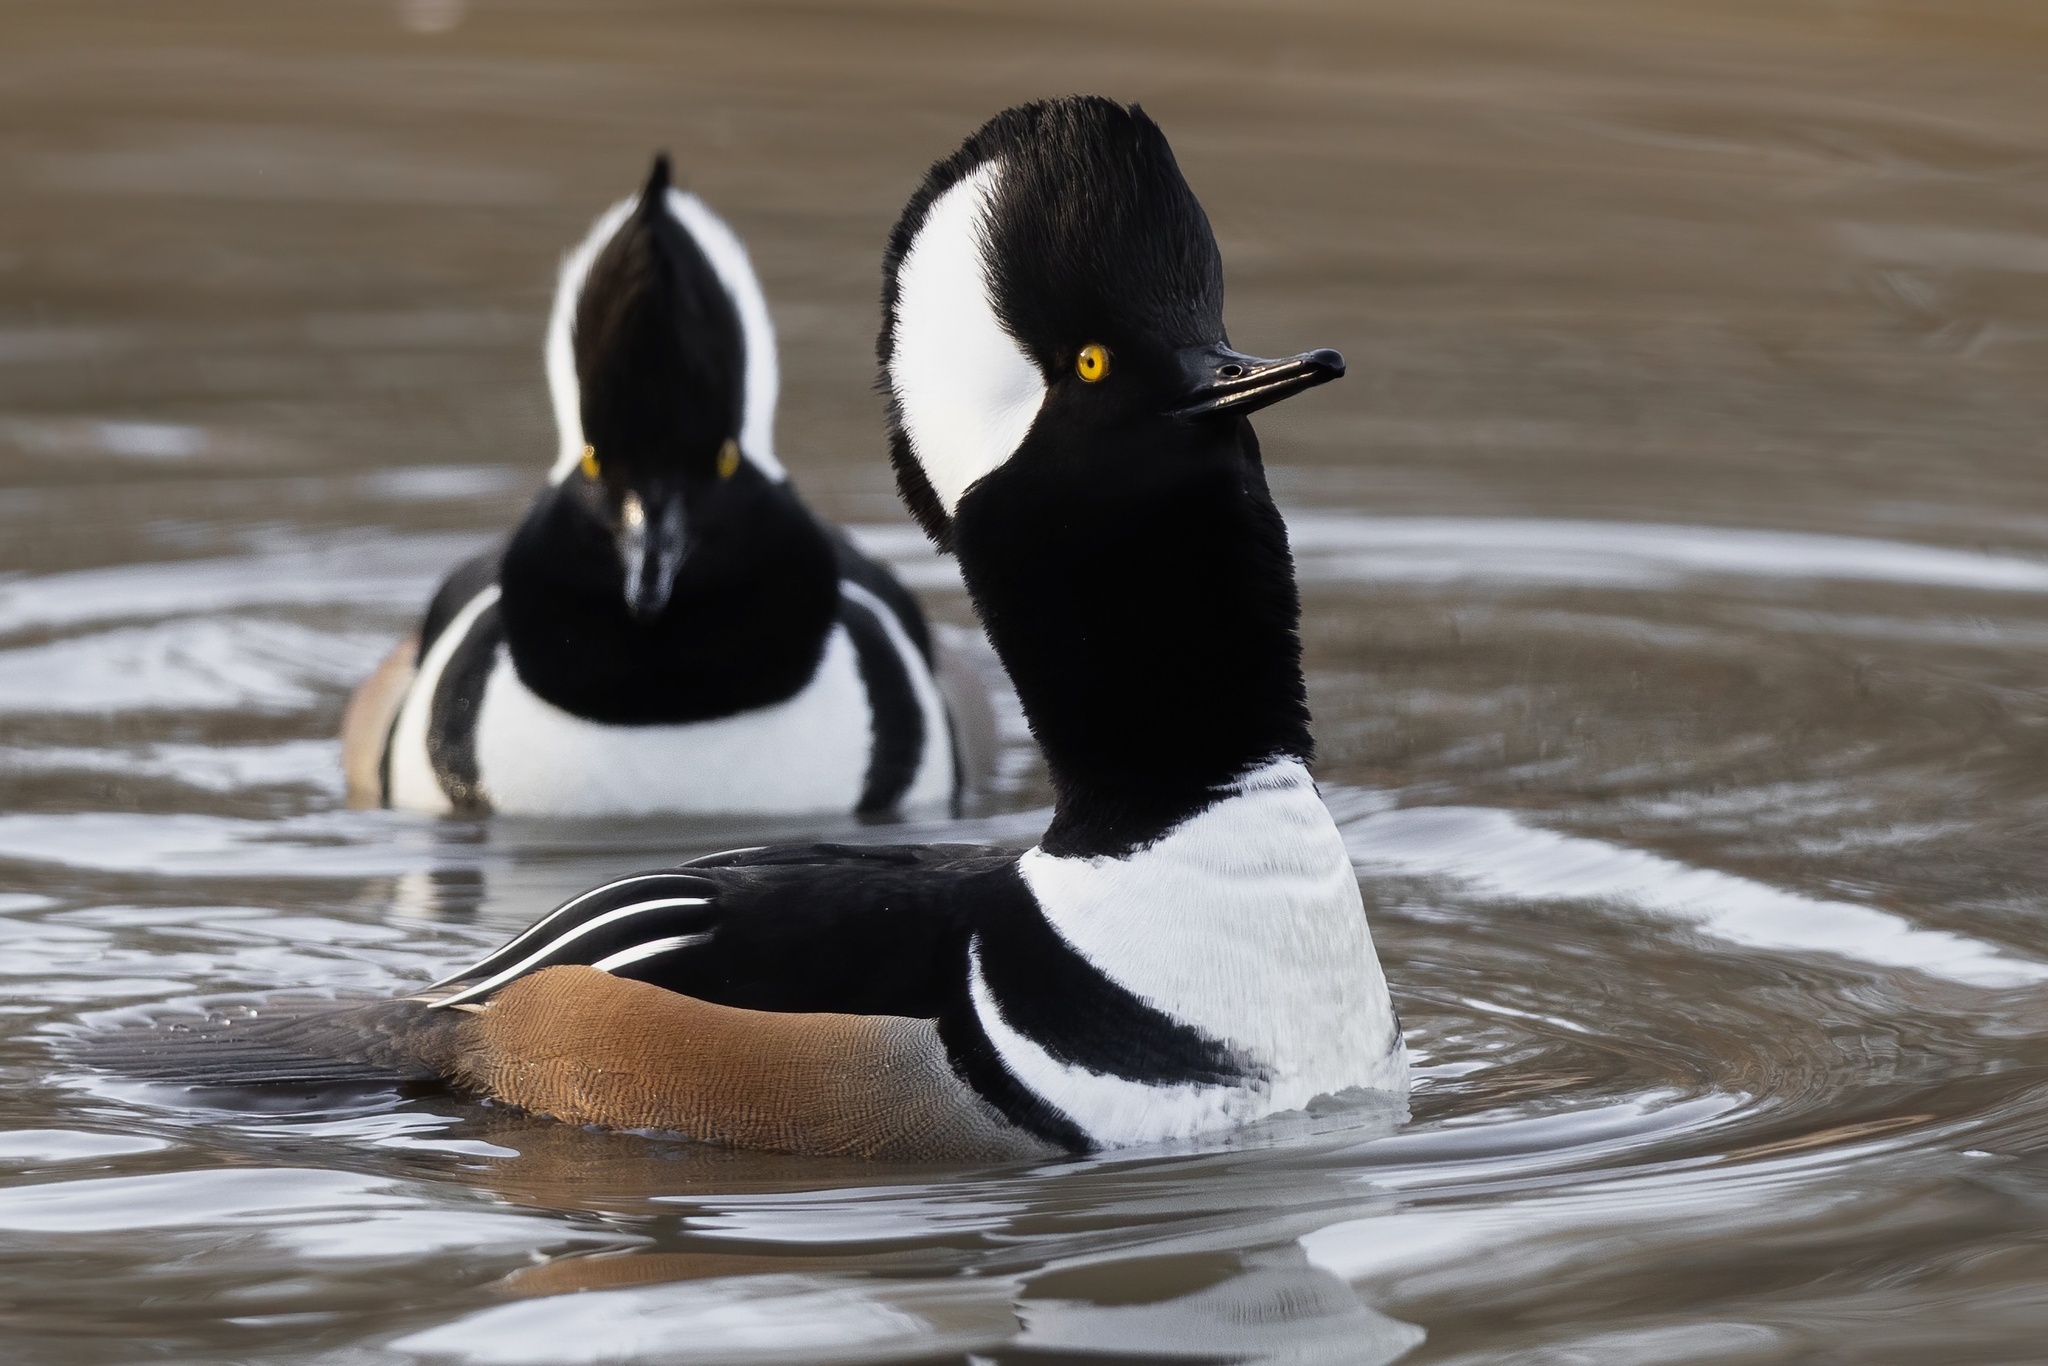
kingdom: Animalia
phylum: Chordata
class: Aves
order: Anseriformes
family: Anatidae
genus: Lophodytes
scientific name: Lophodytes cucullatus
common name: Hooded merganser
